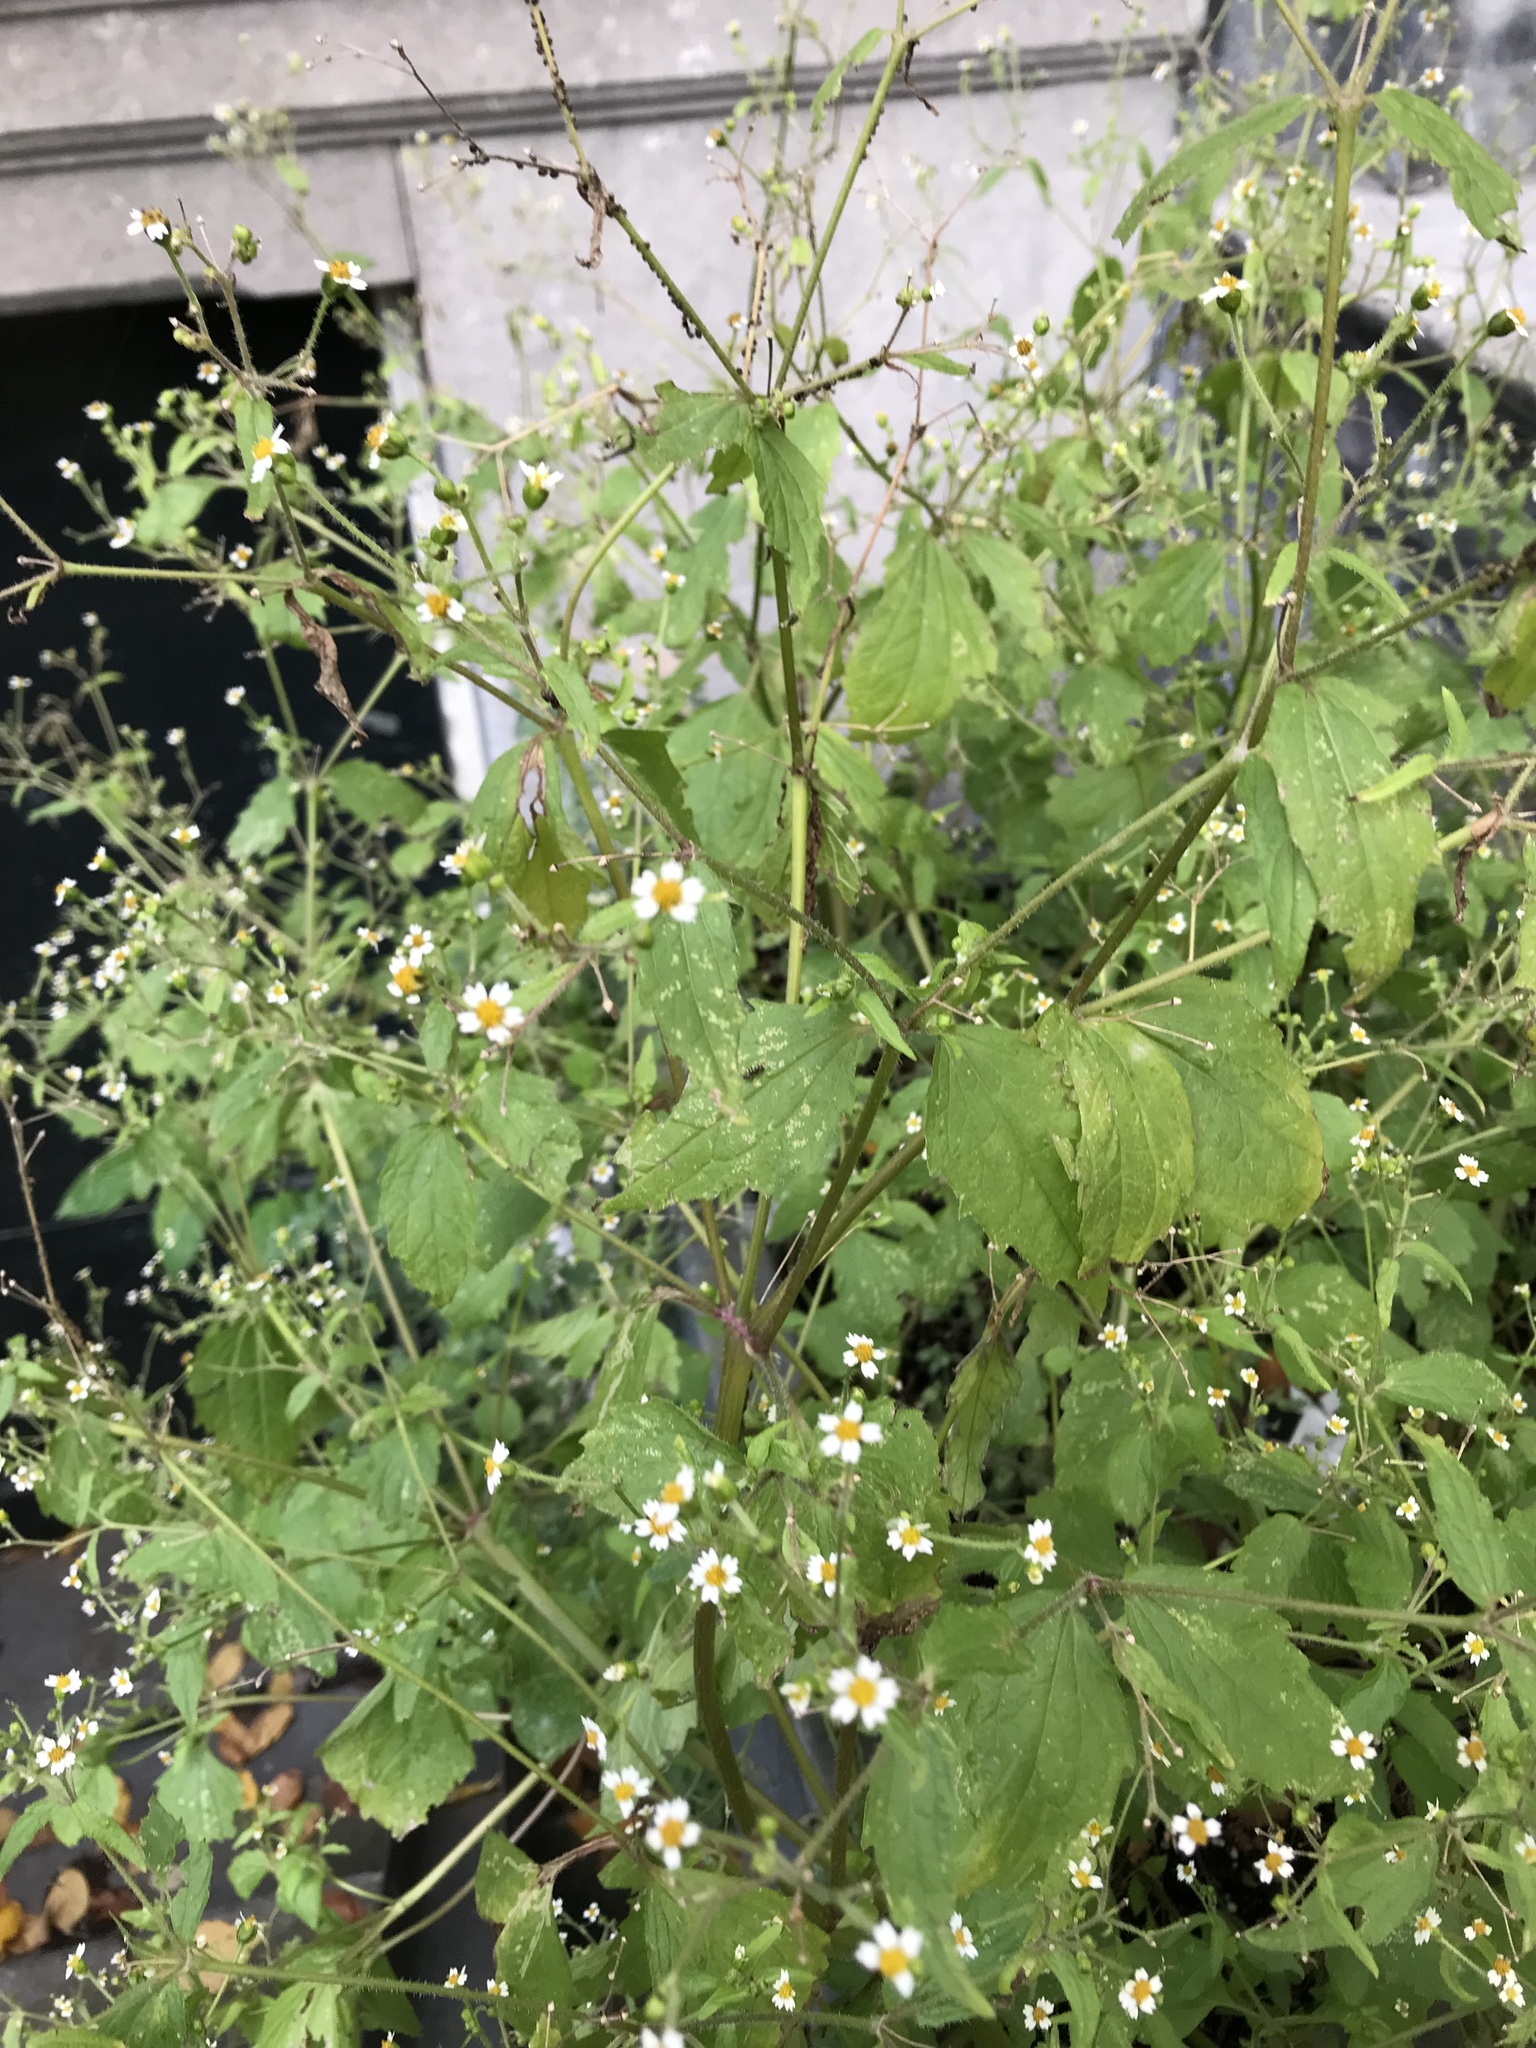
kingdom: Plantae
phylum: Tracheophyta
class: Magnoliopsida
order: Asterales
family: Asteraceae
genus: Galinsoga
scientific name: Galinsoga quadriradiata
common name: Shaggy soldier
